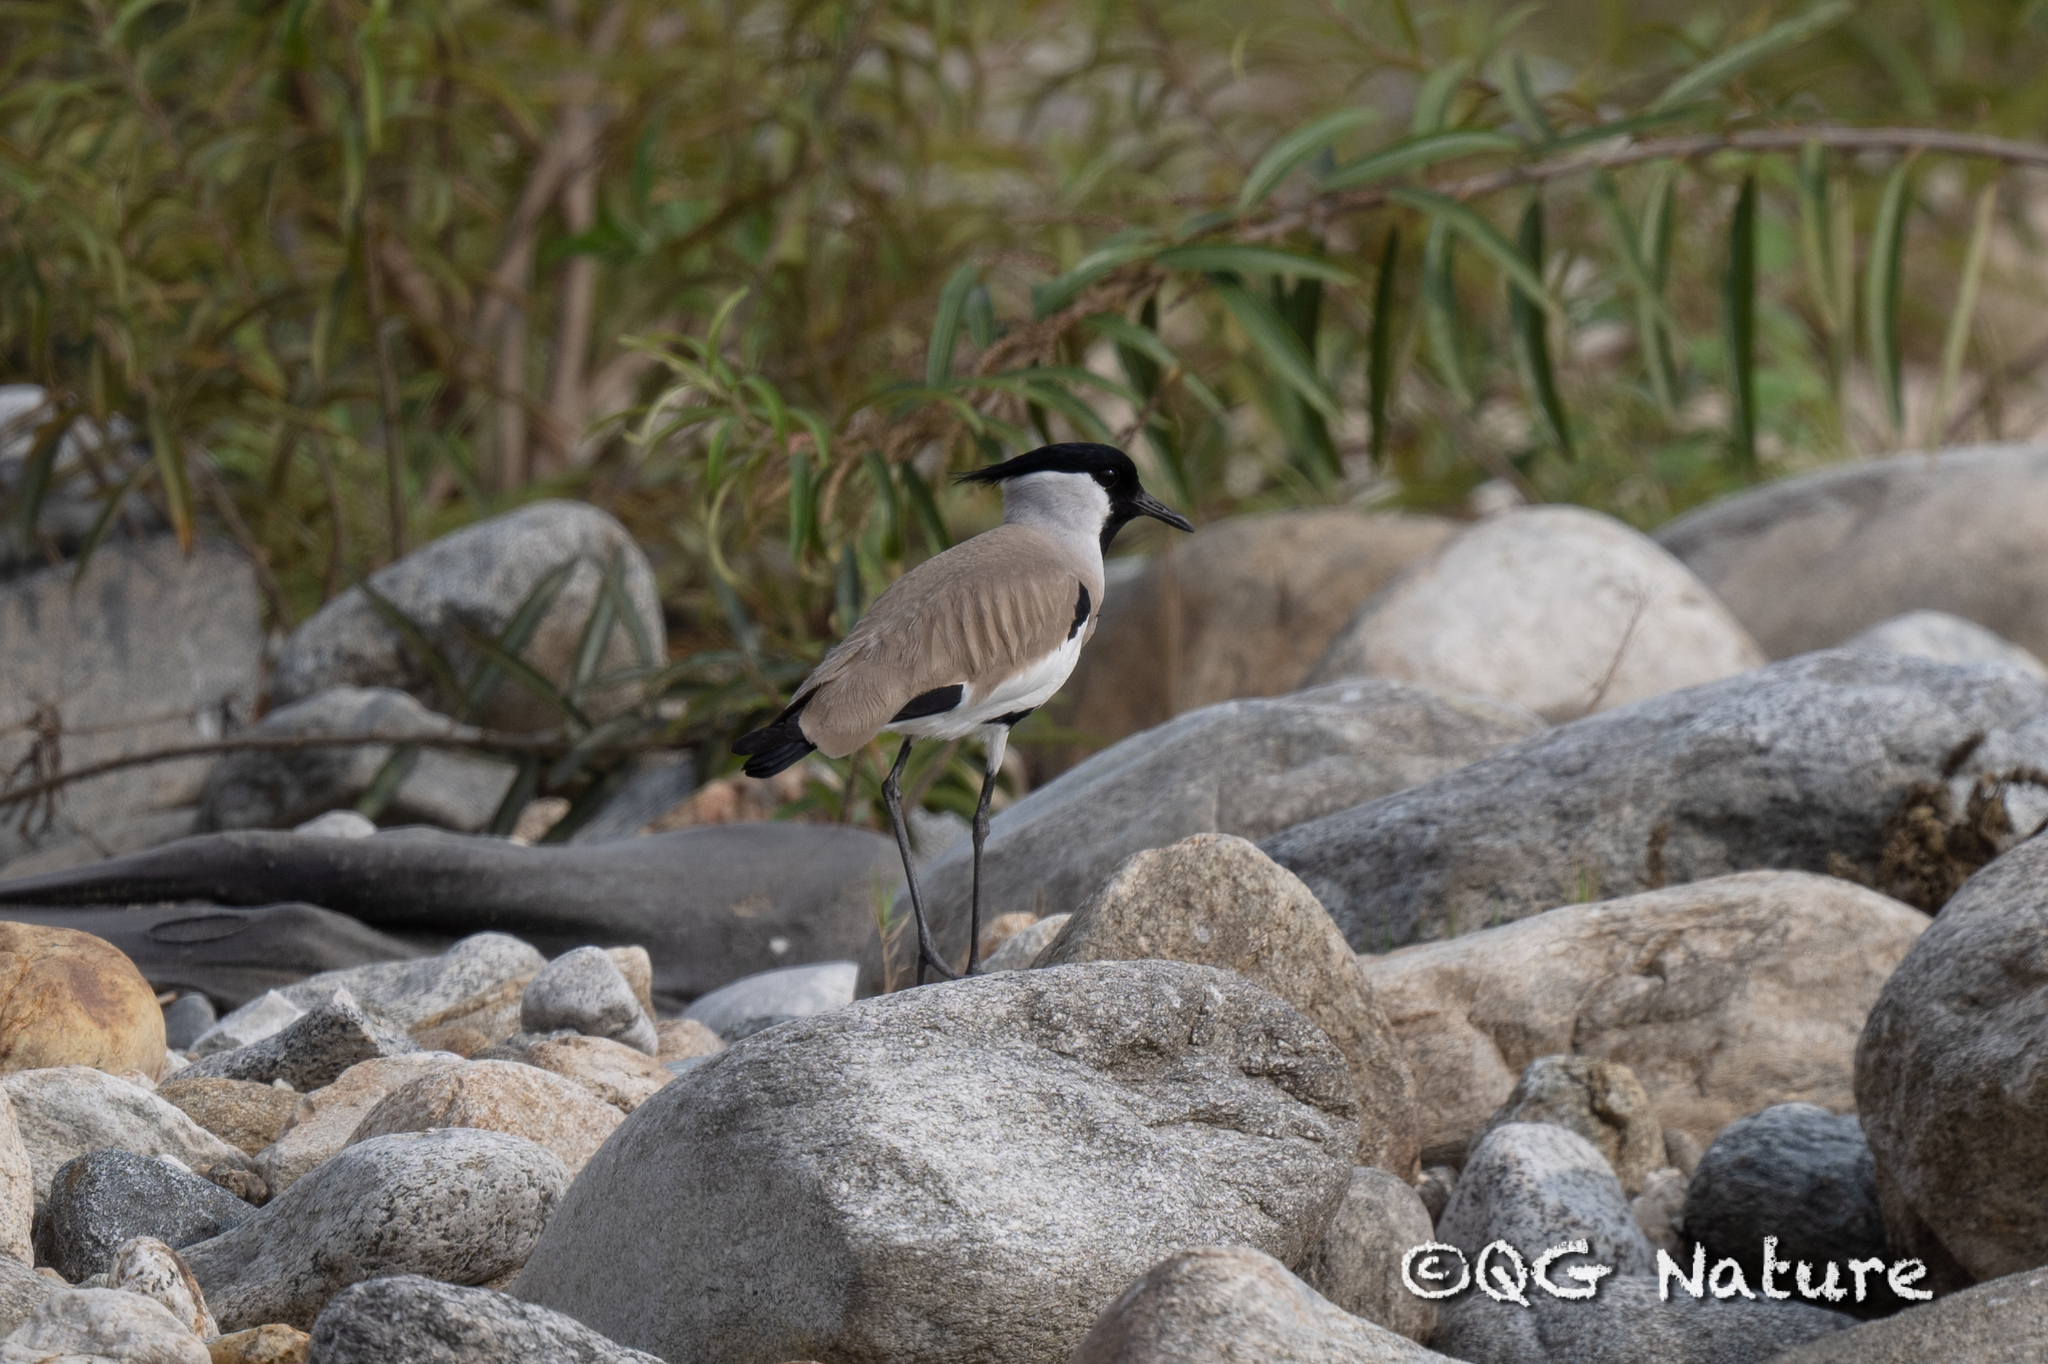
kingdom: Animalia
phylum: Chordata
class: Aves
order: Charadriiformes
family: Charadriidae
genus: Vanellus
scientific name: Vanellus duvaucelii
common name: River lapwing
